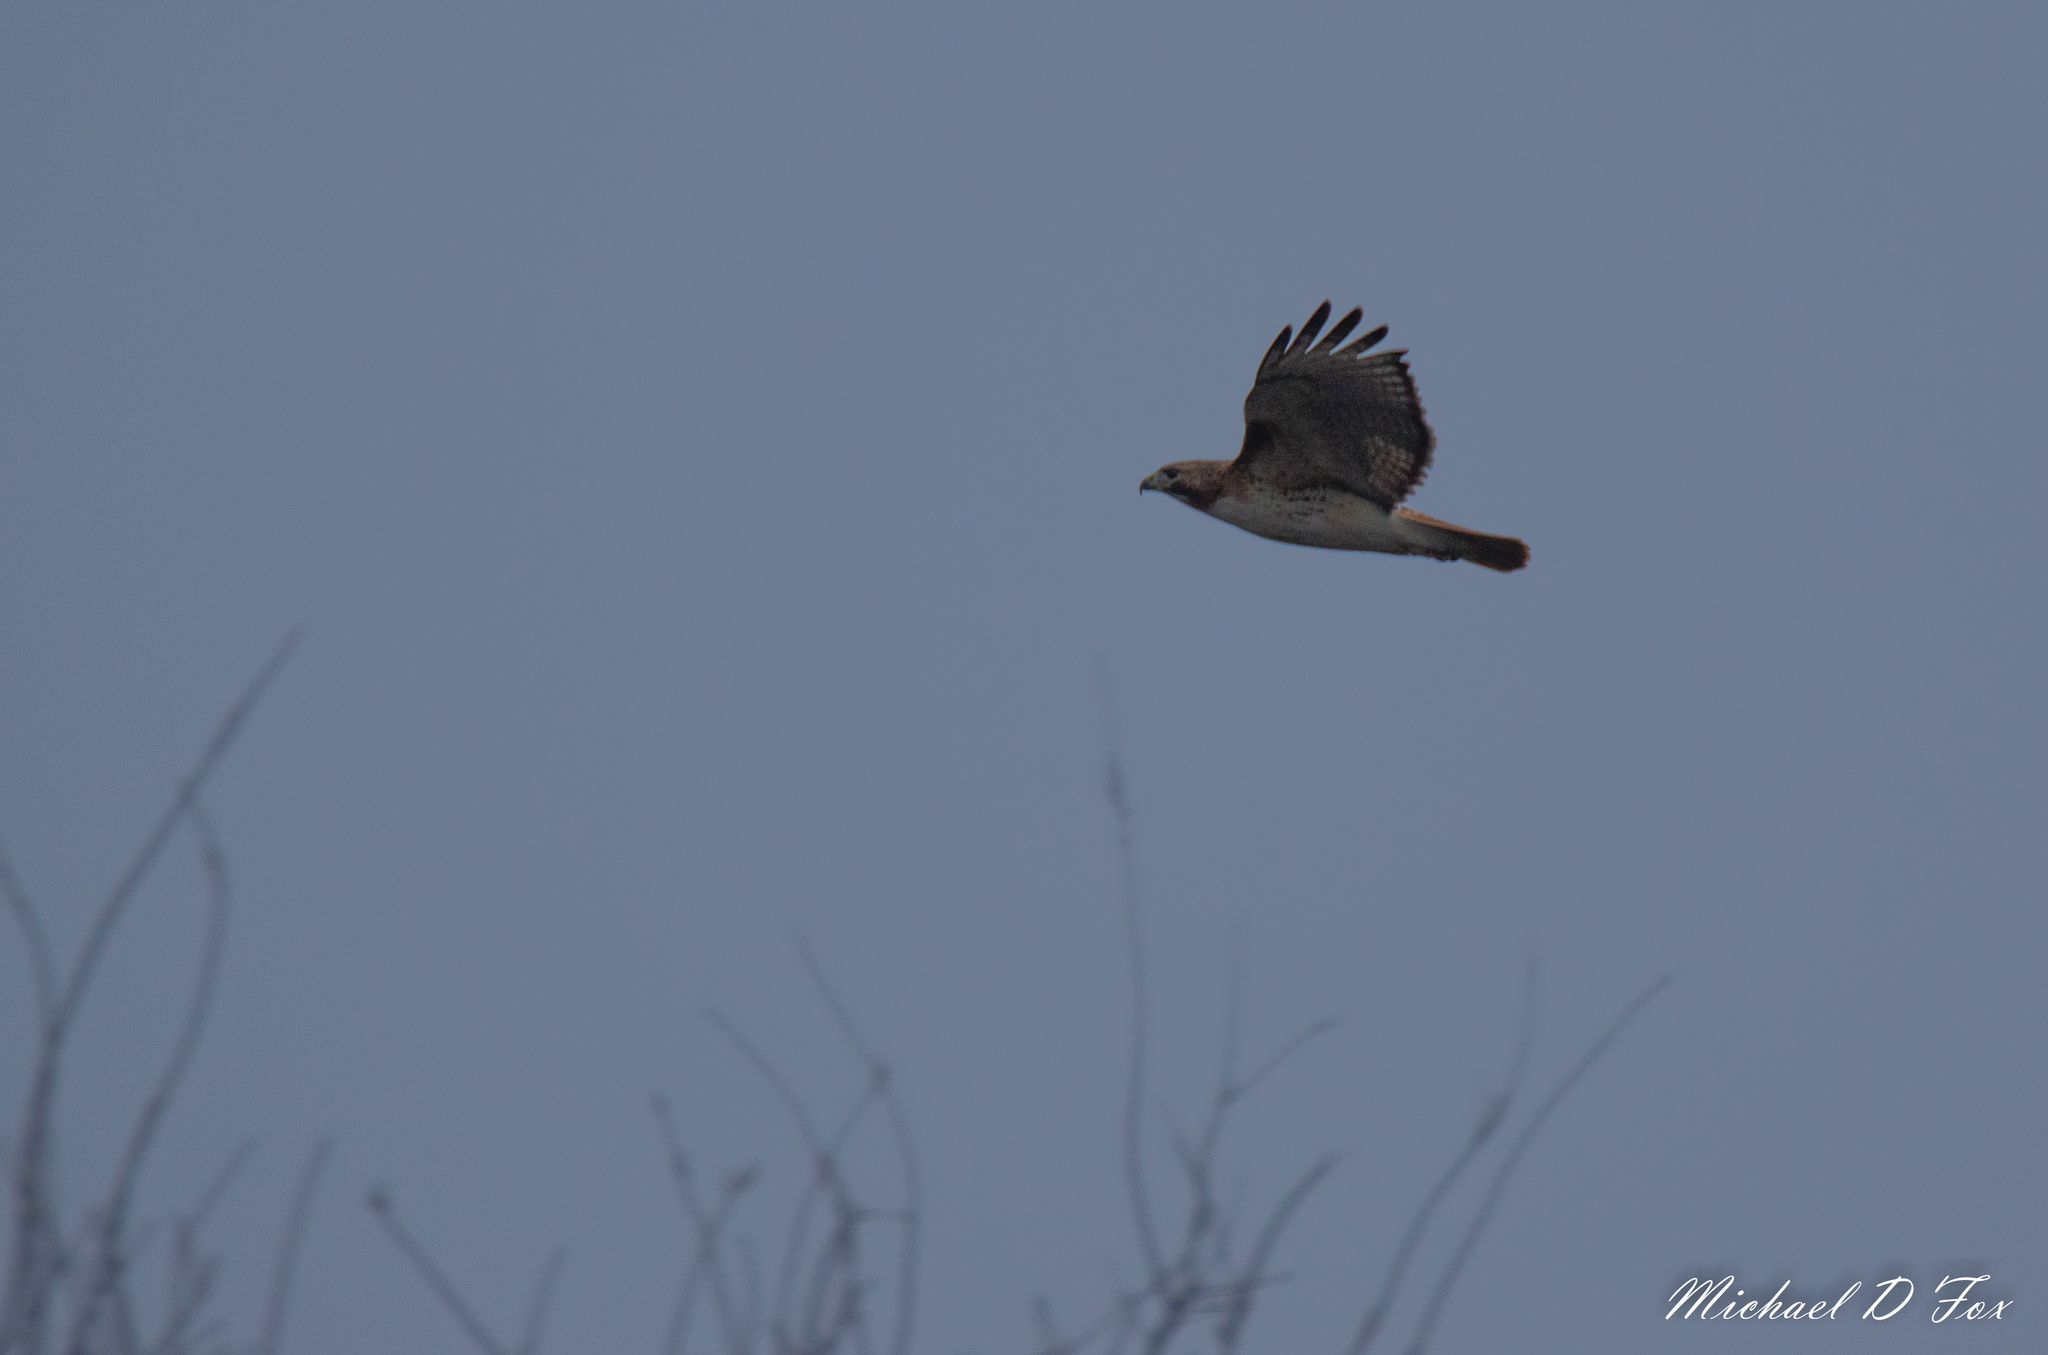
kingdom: Animalia
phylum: Chordata
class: Aves
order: Accipitriformes
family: Accipitridae
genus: Buteo
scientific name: Buteo jamaicensis
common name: Red-tailed hawk
